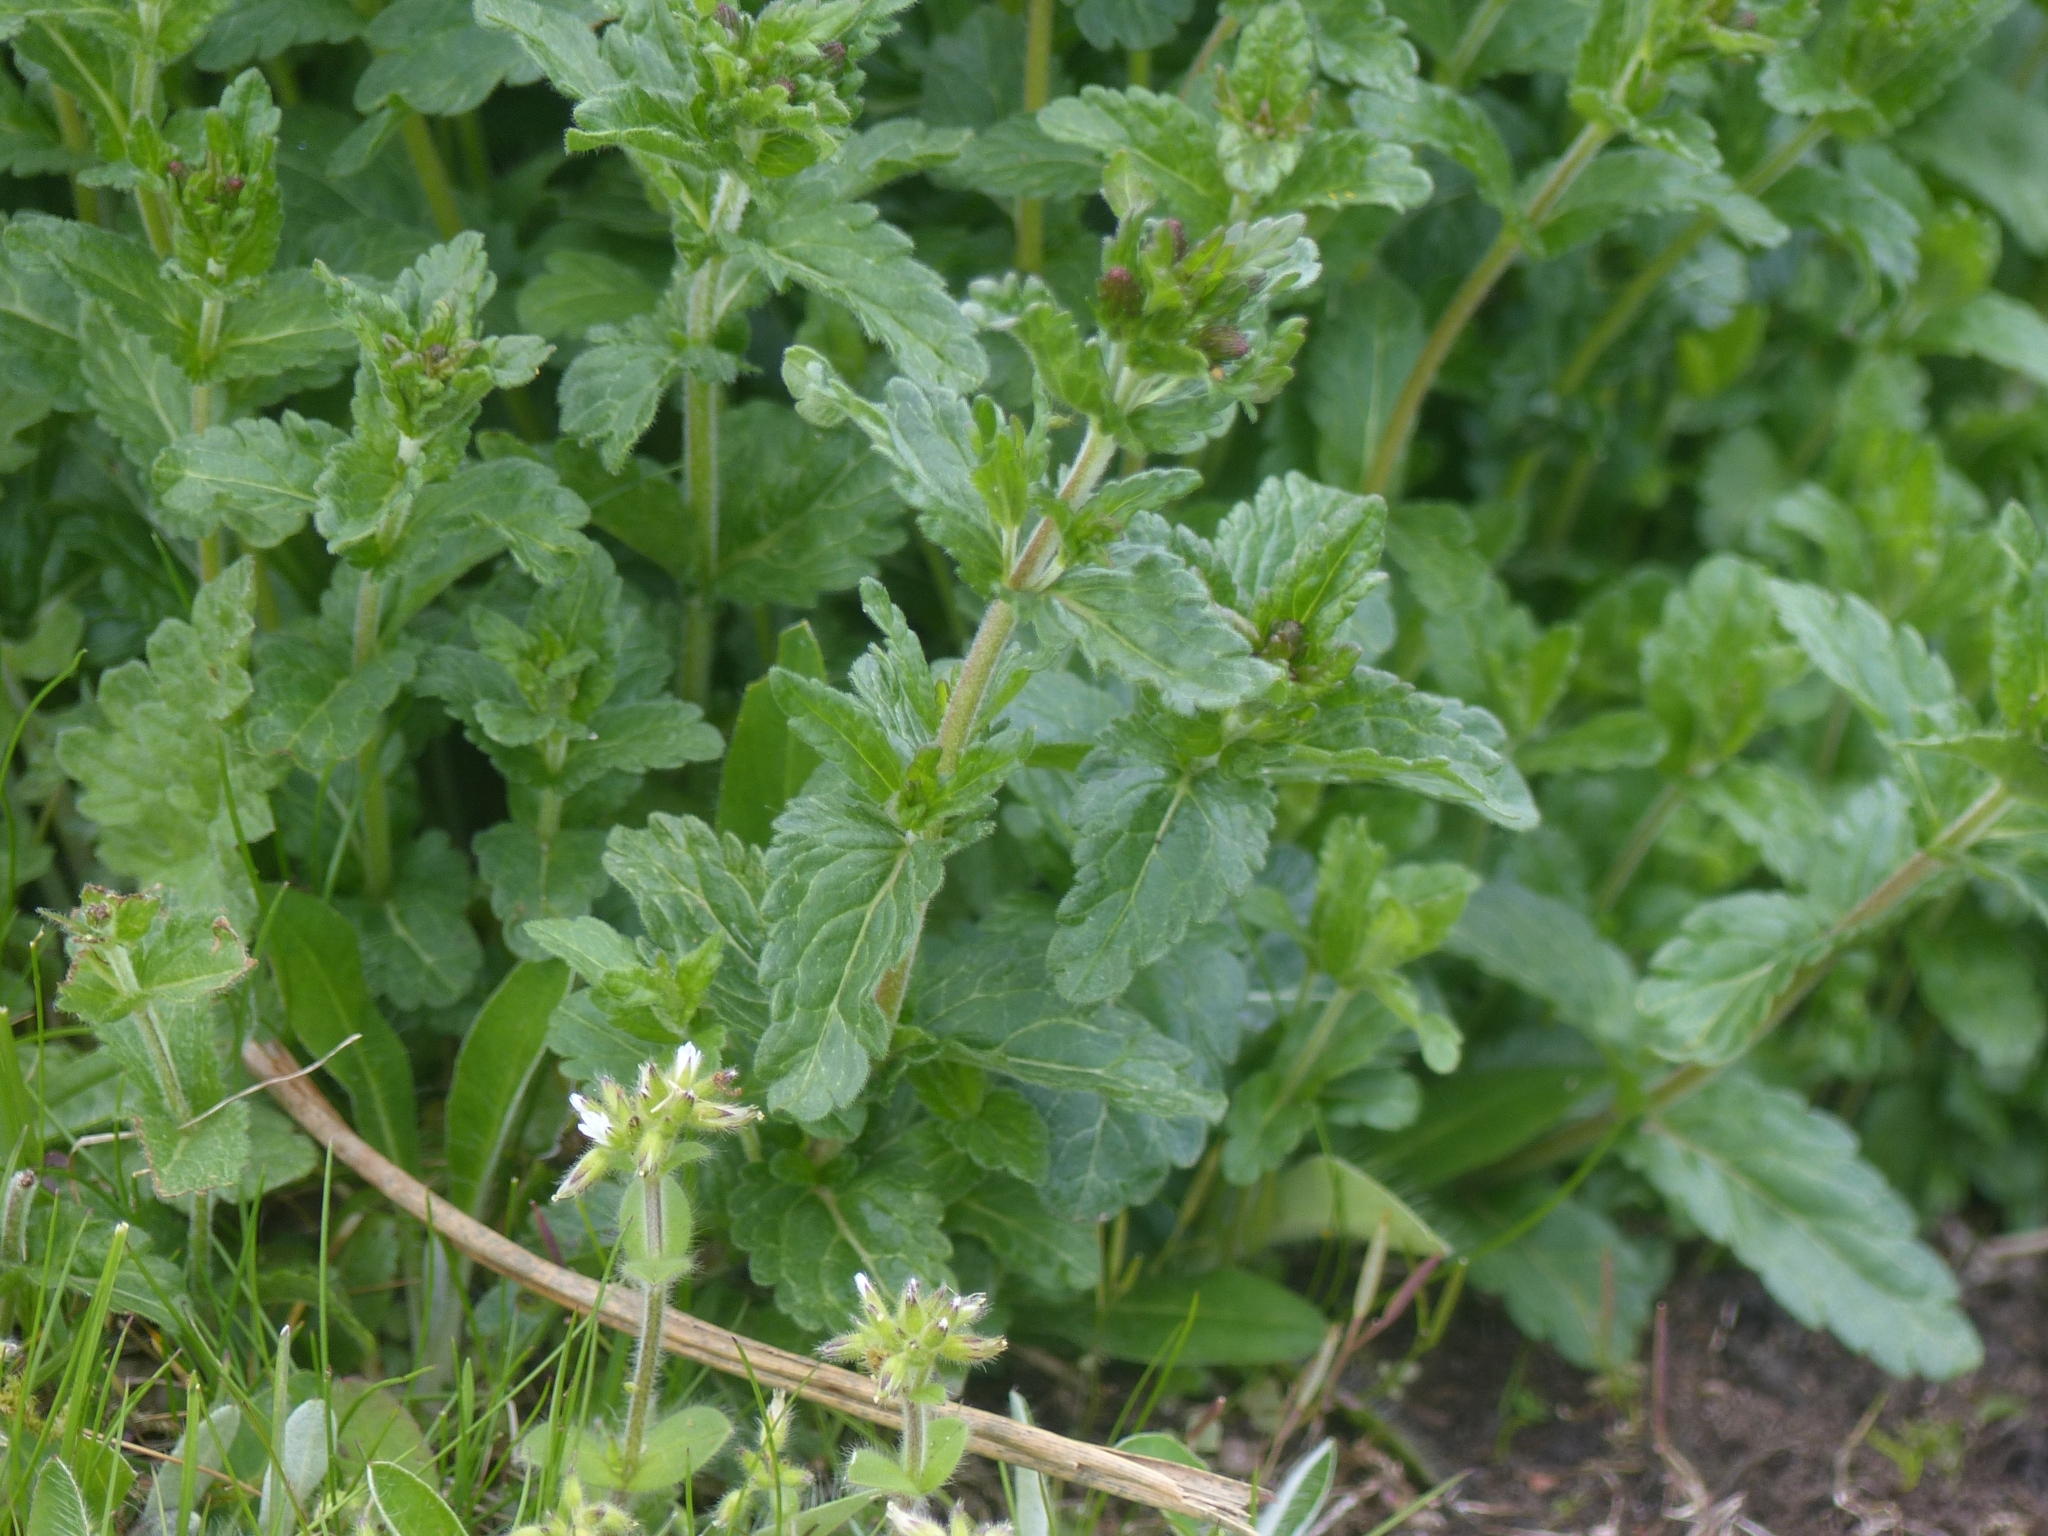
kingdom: Plantae
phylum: Tracheophyta
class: Magnoliopsida
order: Lamiales
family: Plantaginaceae
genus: Veronica
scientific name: Veronica teucrium
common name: Large speedwell
